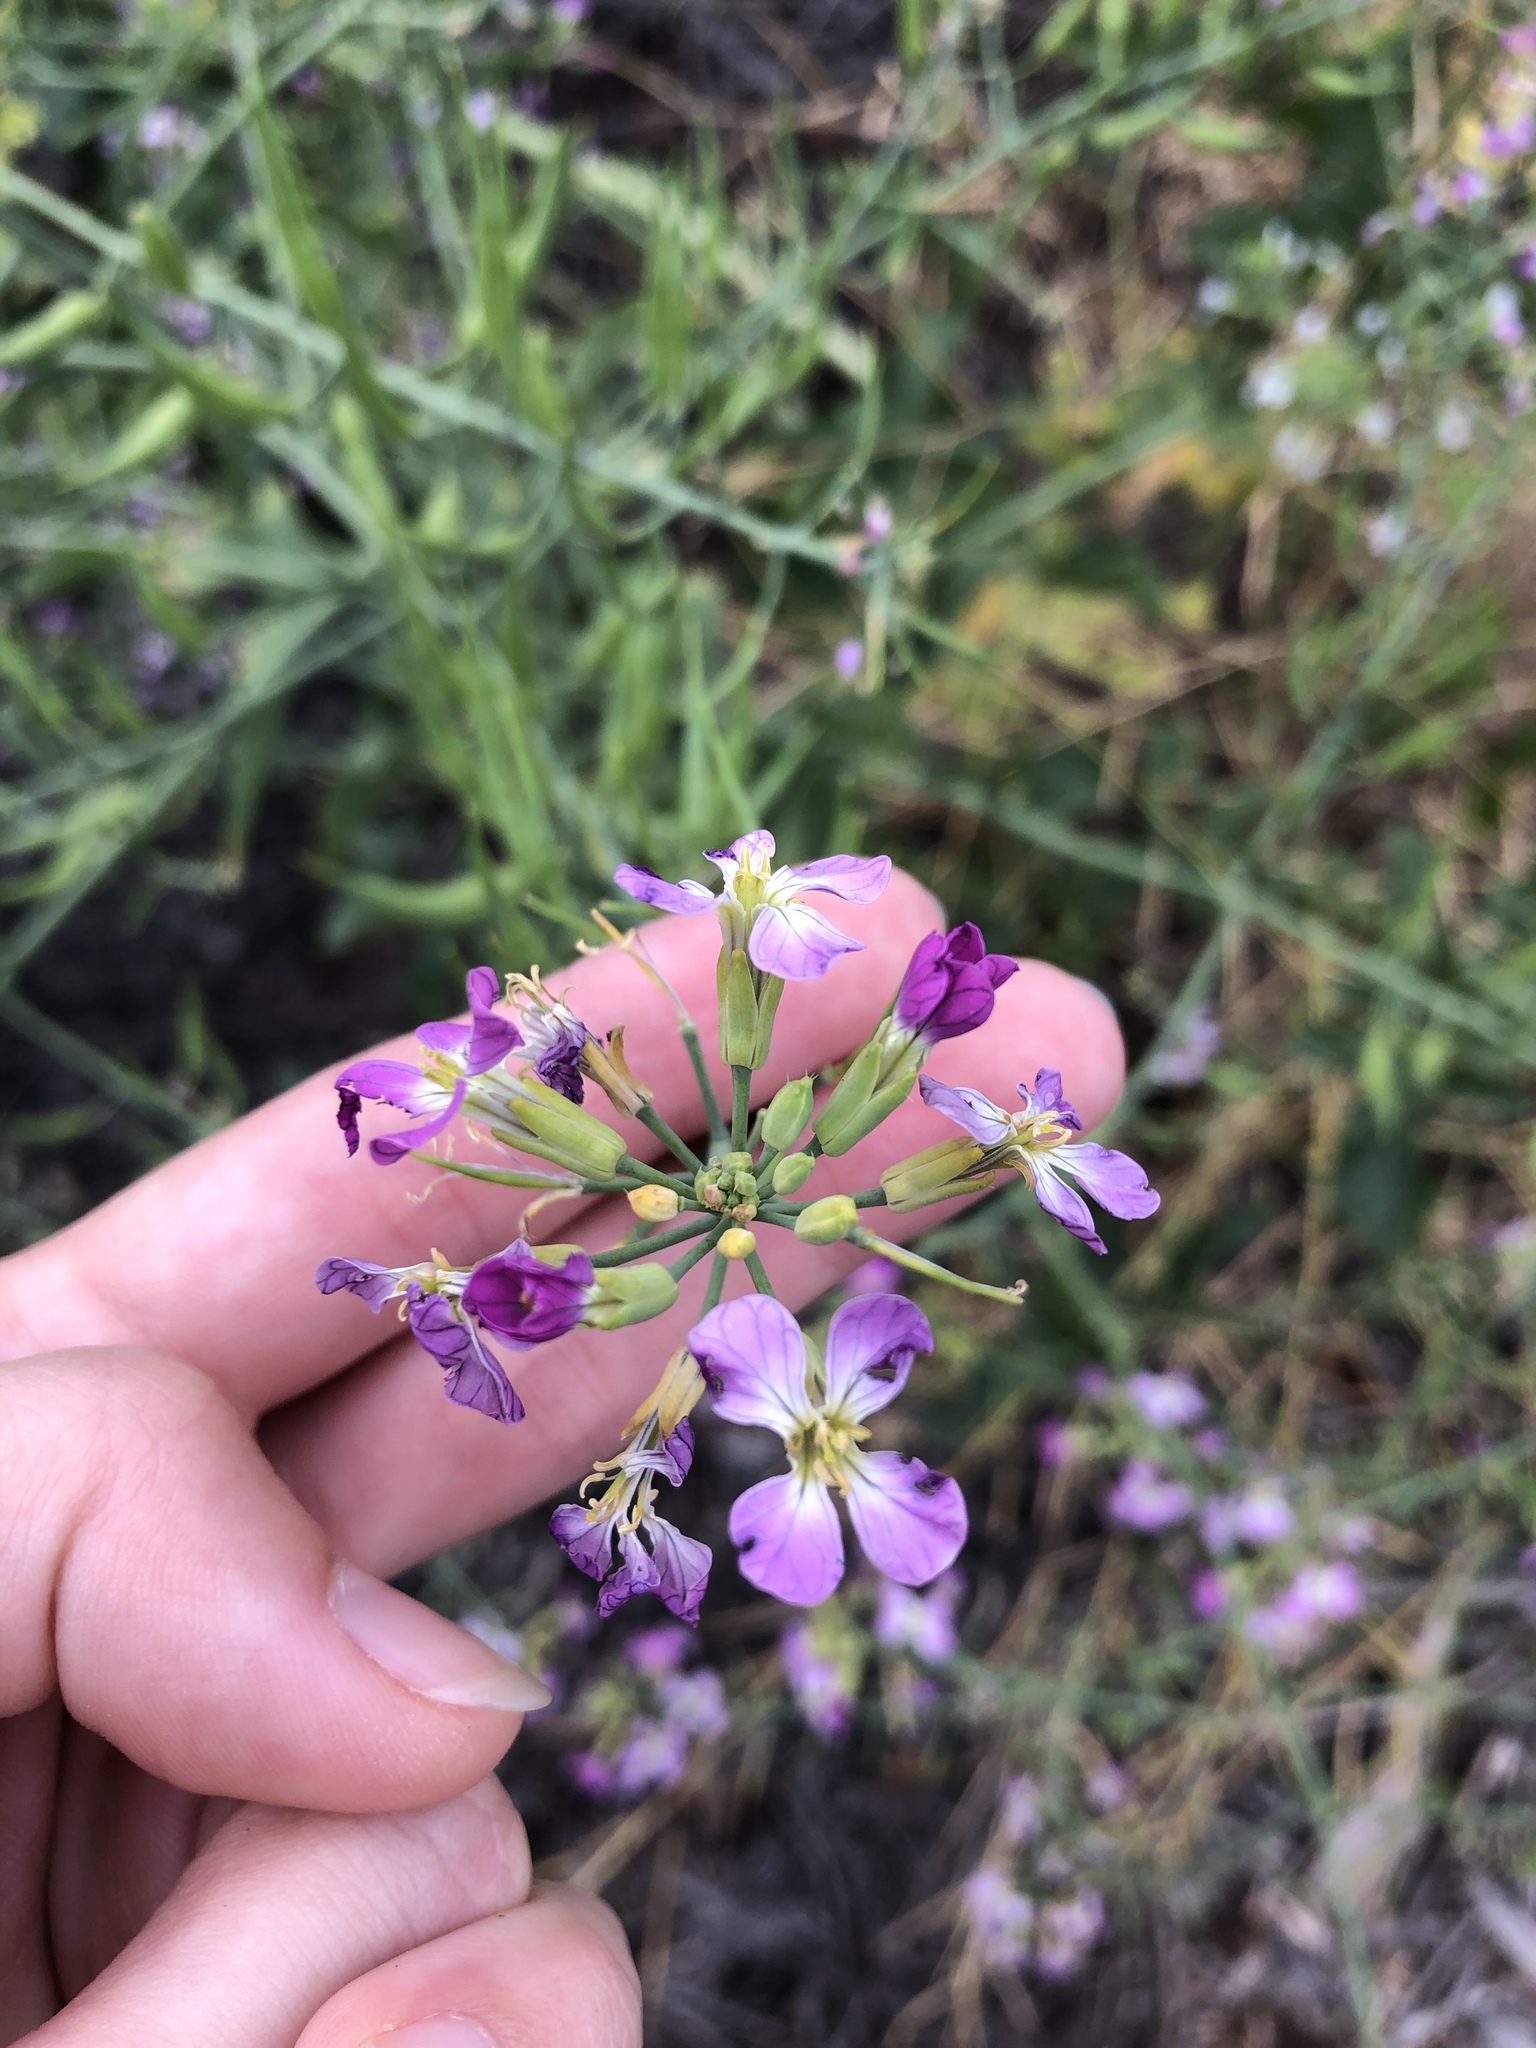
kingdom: Plantae
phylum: Tracheophyta
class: Magnoliopsida
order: Brassicales
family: Brassicaceae
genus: Raphanus
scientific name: Raphanus sativus
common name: Cultivated radish
